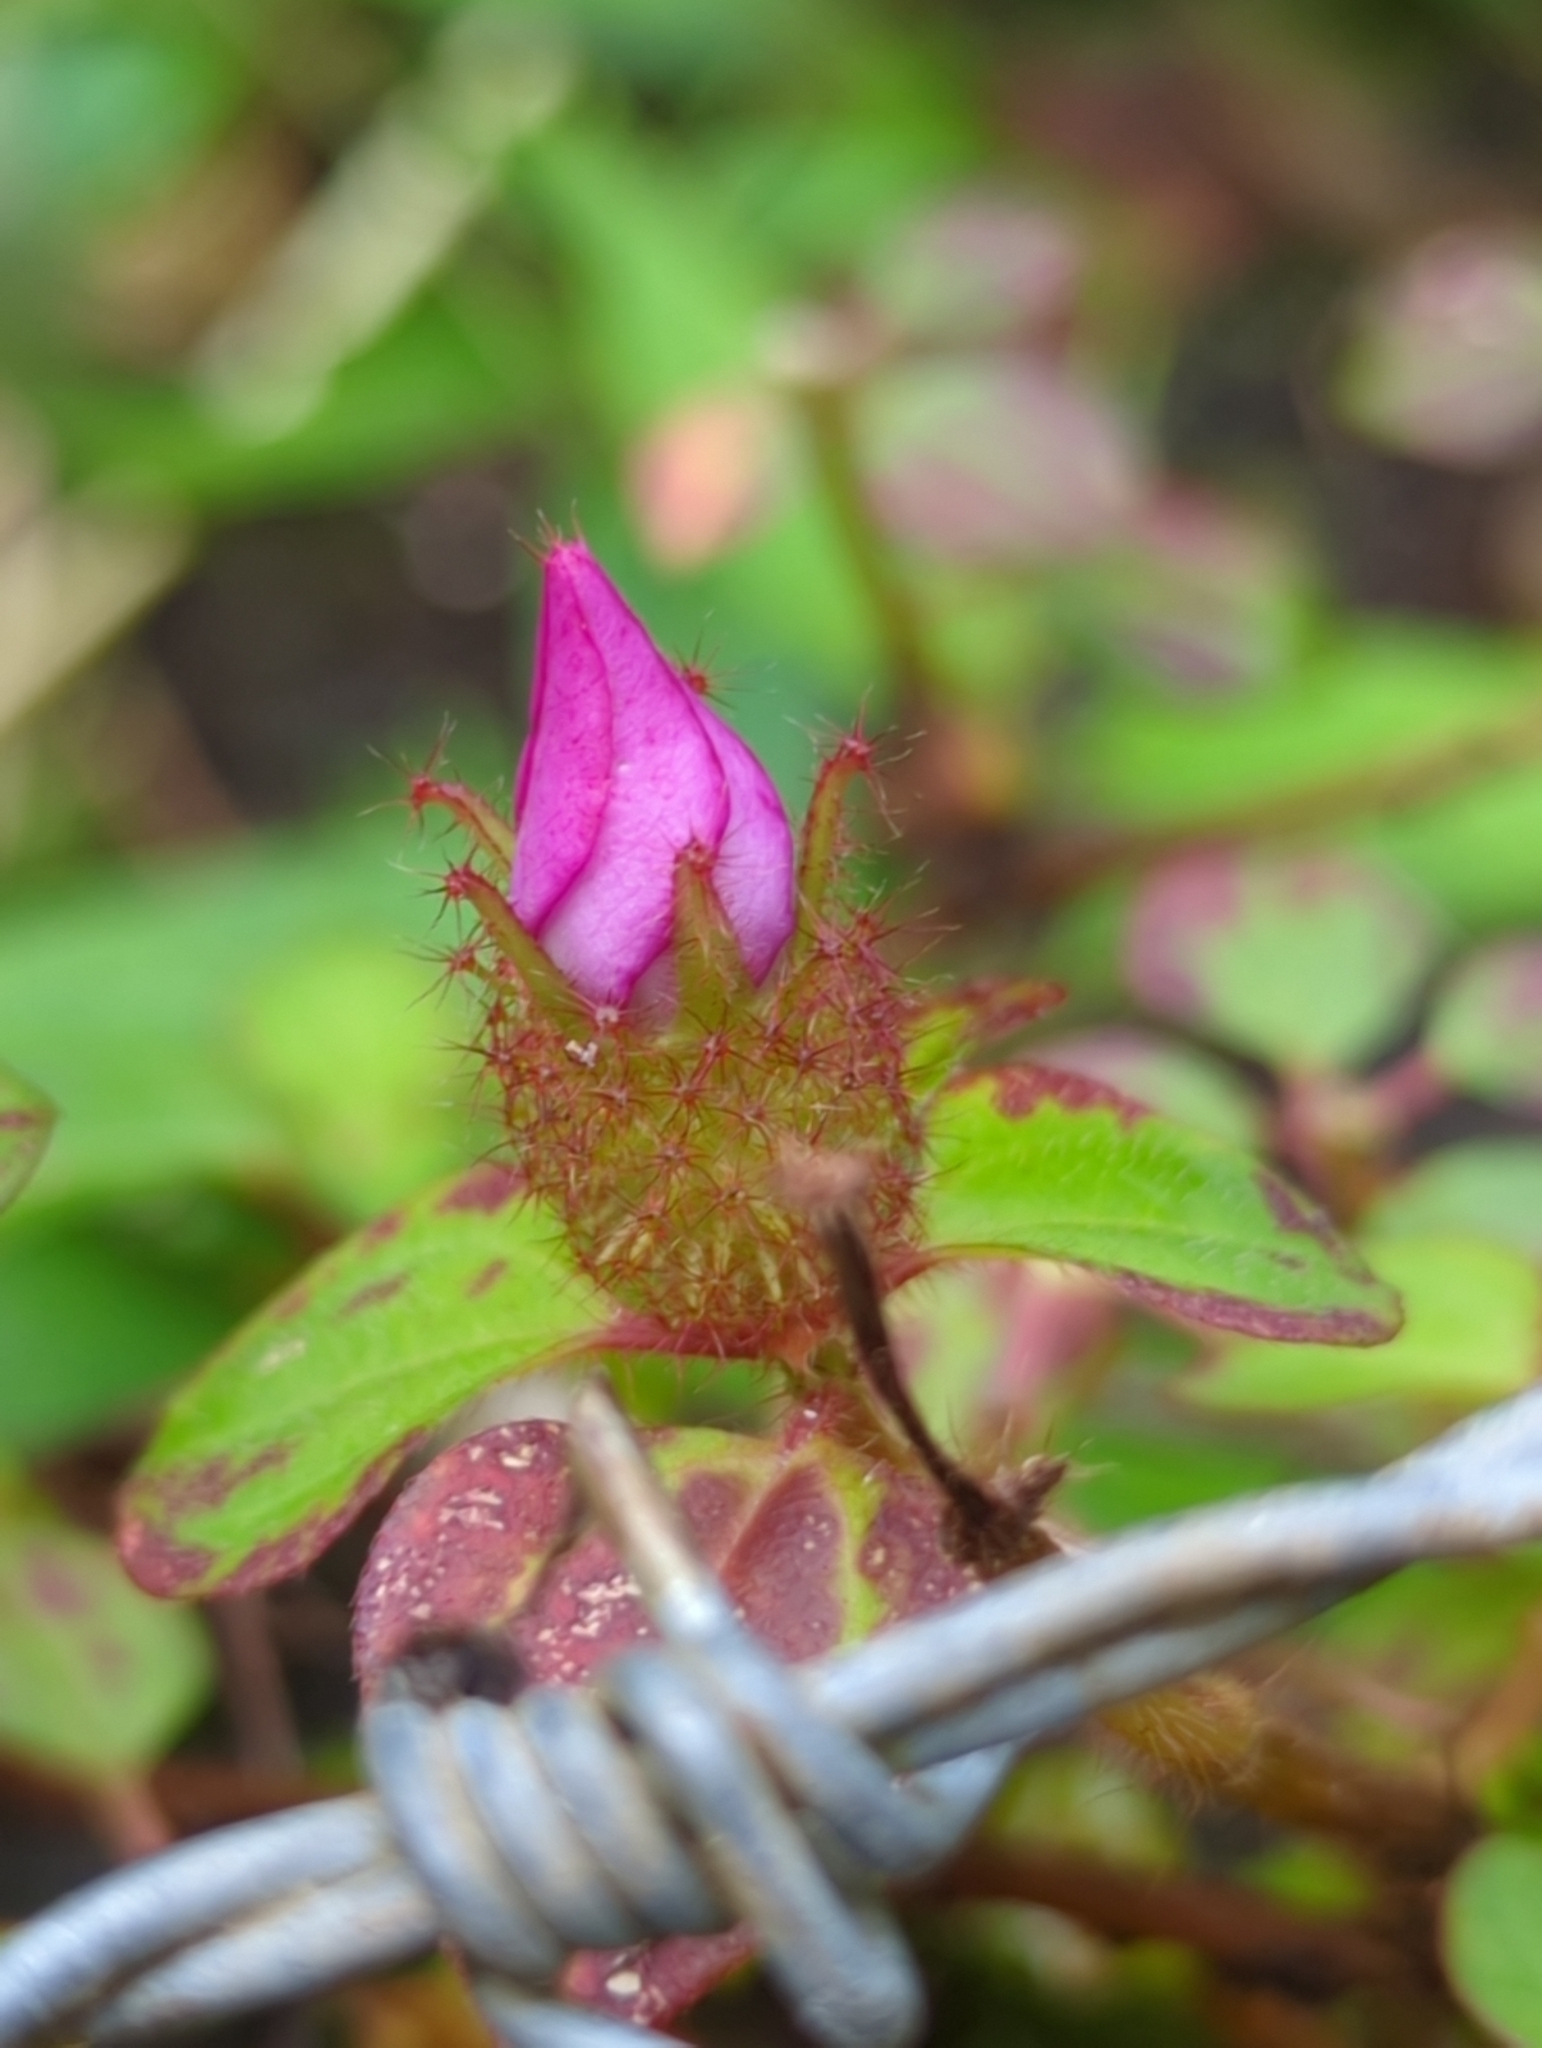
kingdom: Plantae
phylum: Tracheophyta
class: Magnoliopsida
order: Myrtales
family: Melastomataceae
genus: Heterotis
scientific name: Heterotis rotundifolia
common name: Pinklady
